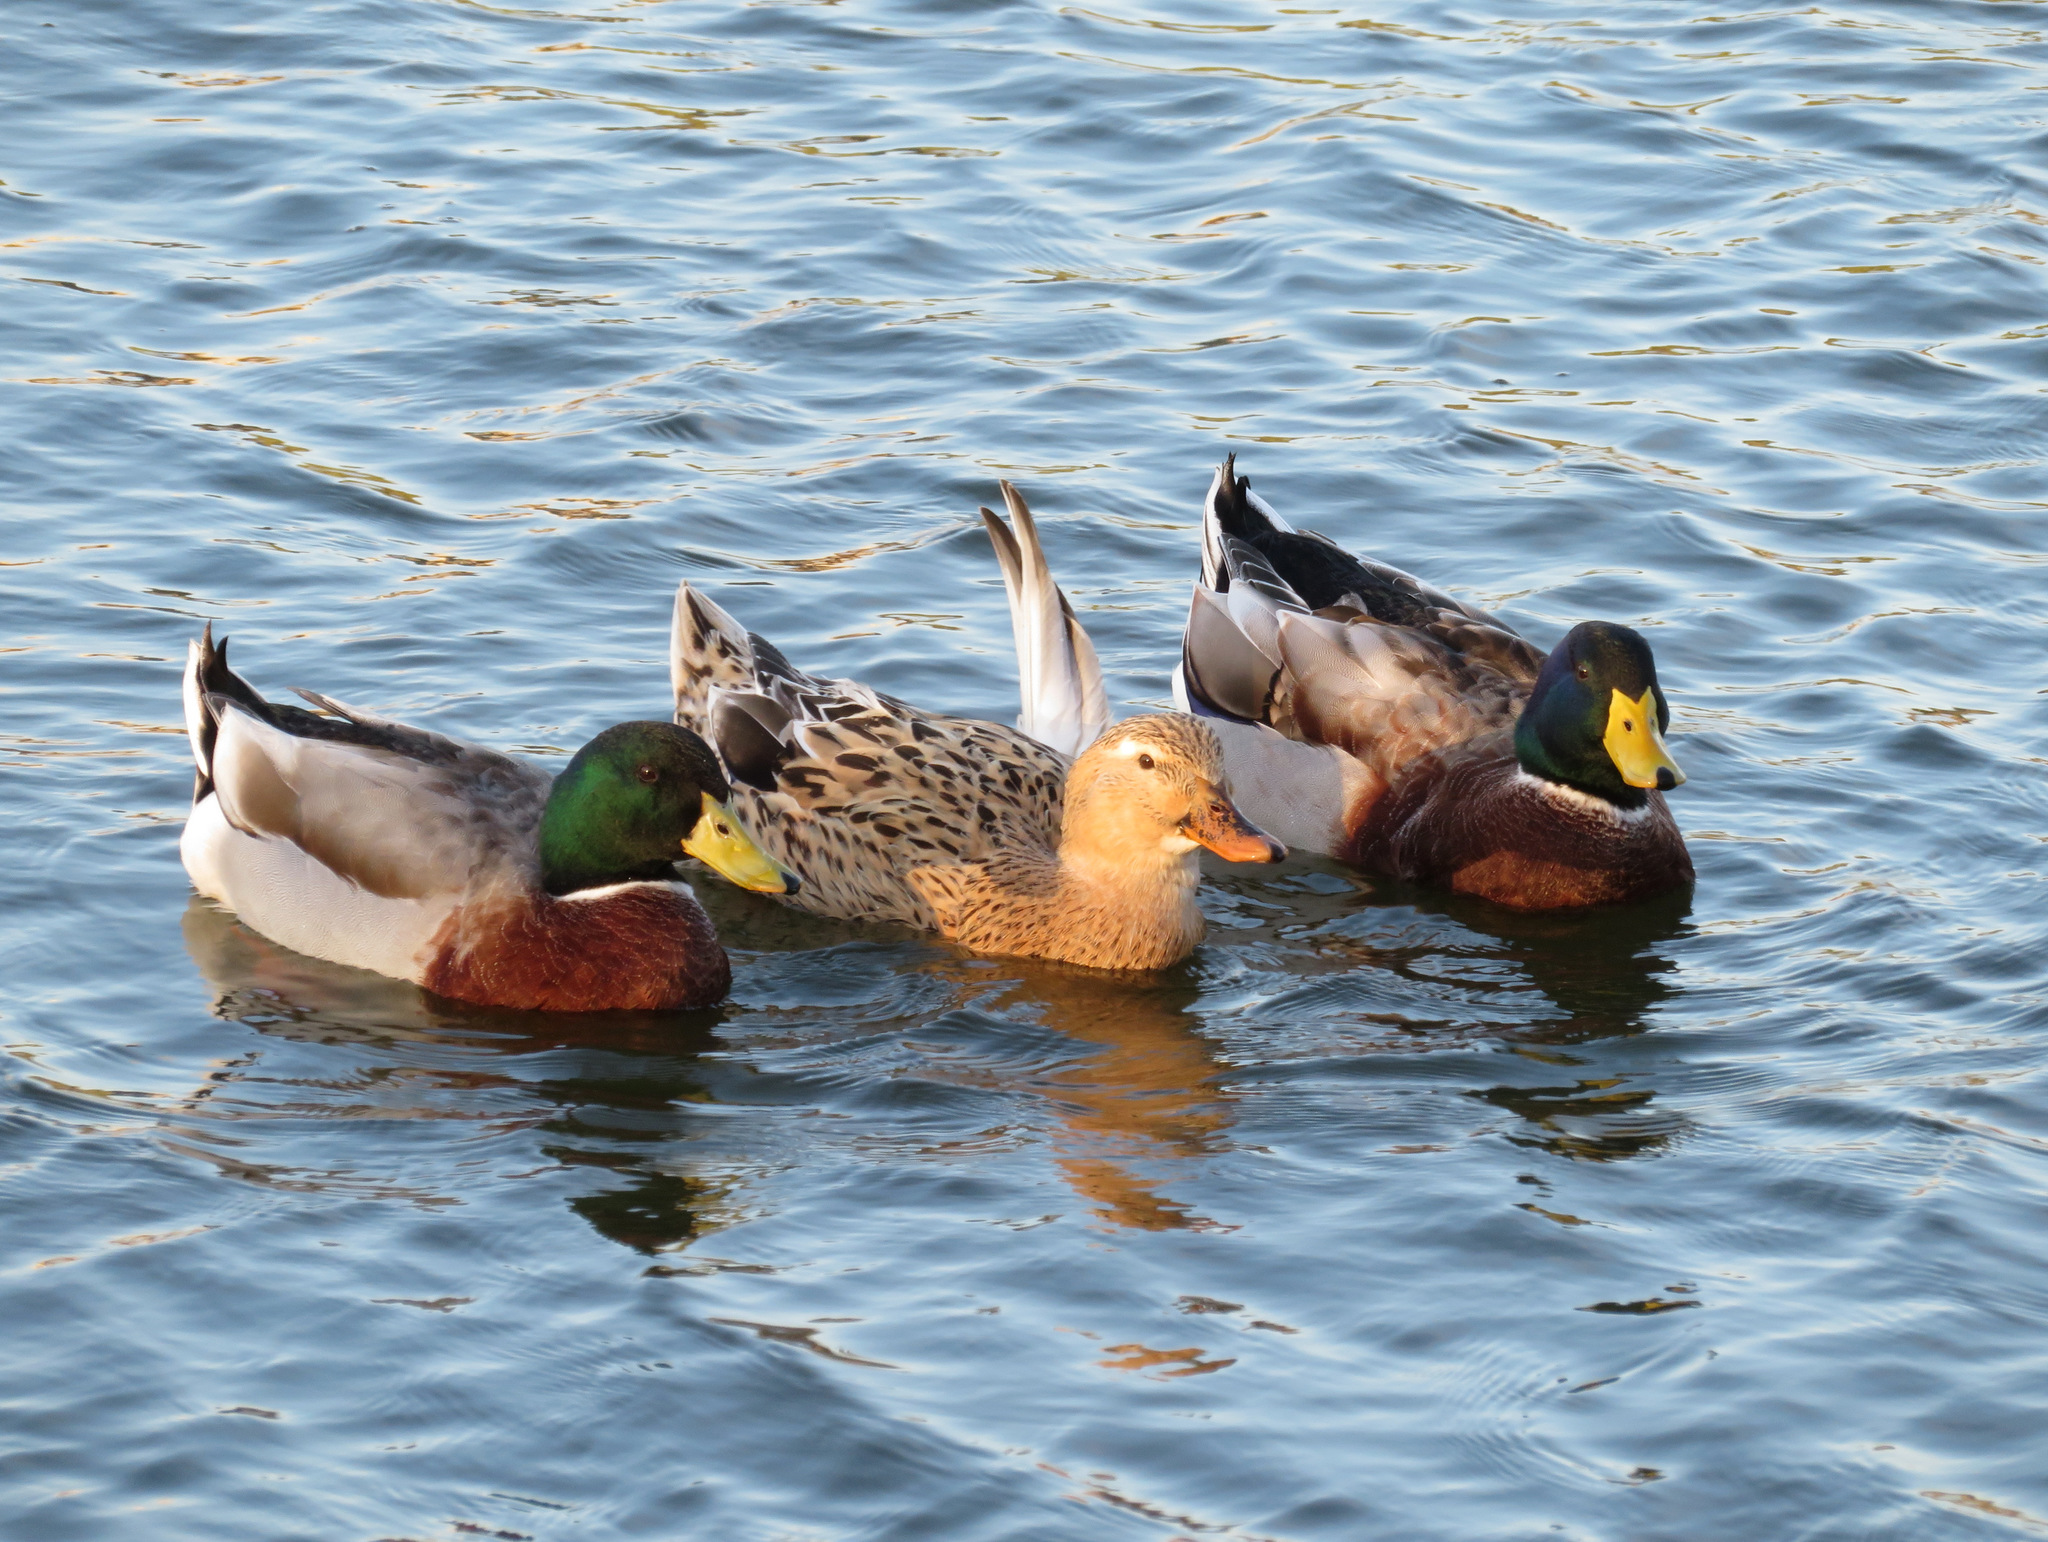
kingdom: Animalia
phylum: Chordata
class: Aves
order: Anseriformes
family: Anatidae
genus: Anas
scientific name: Anas platyrhynchos
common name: Mallard
